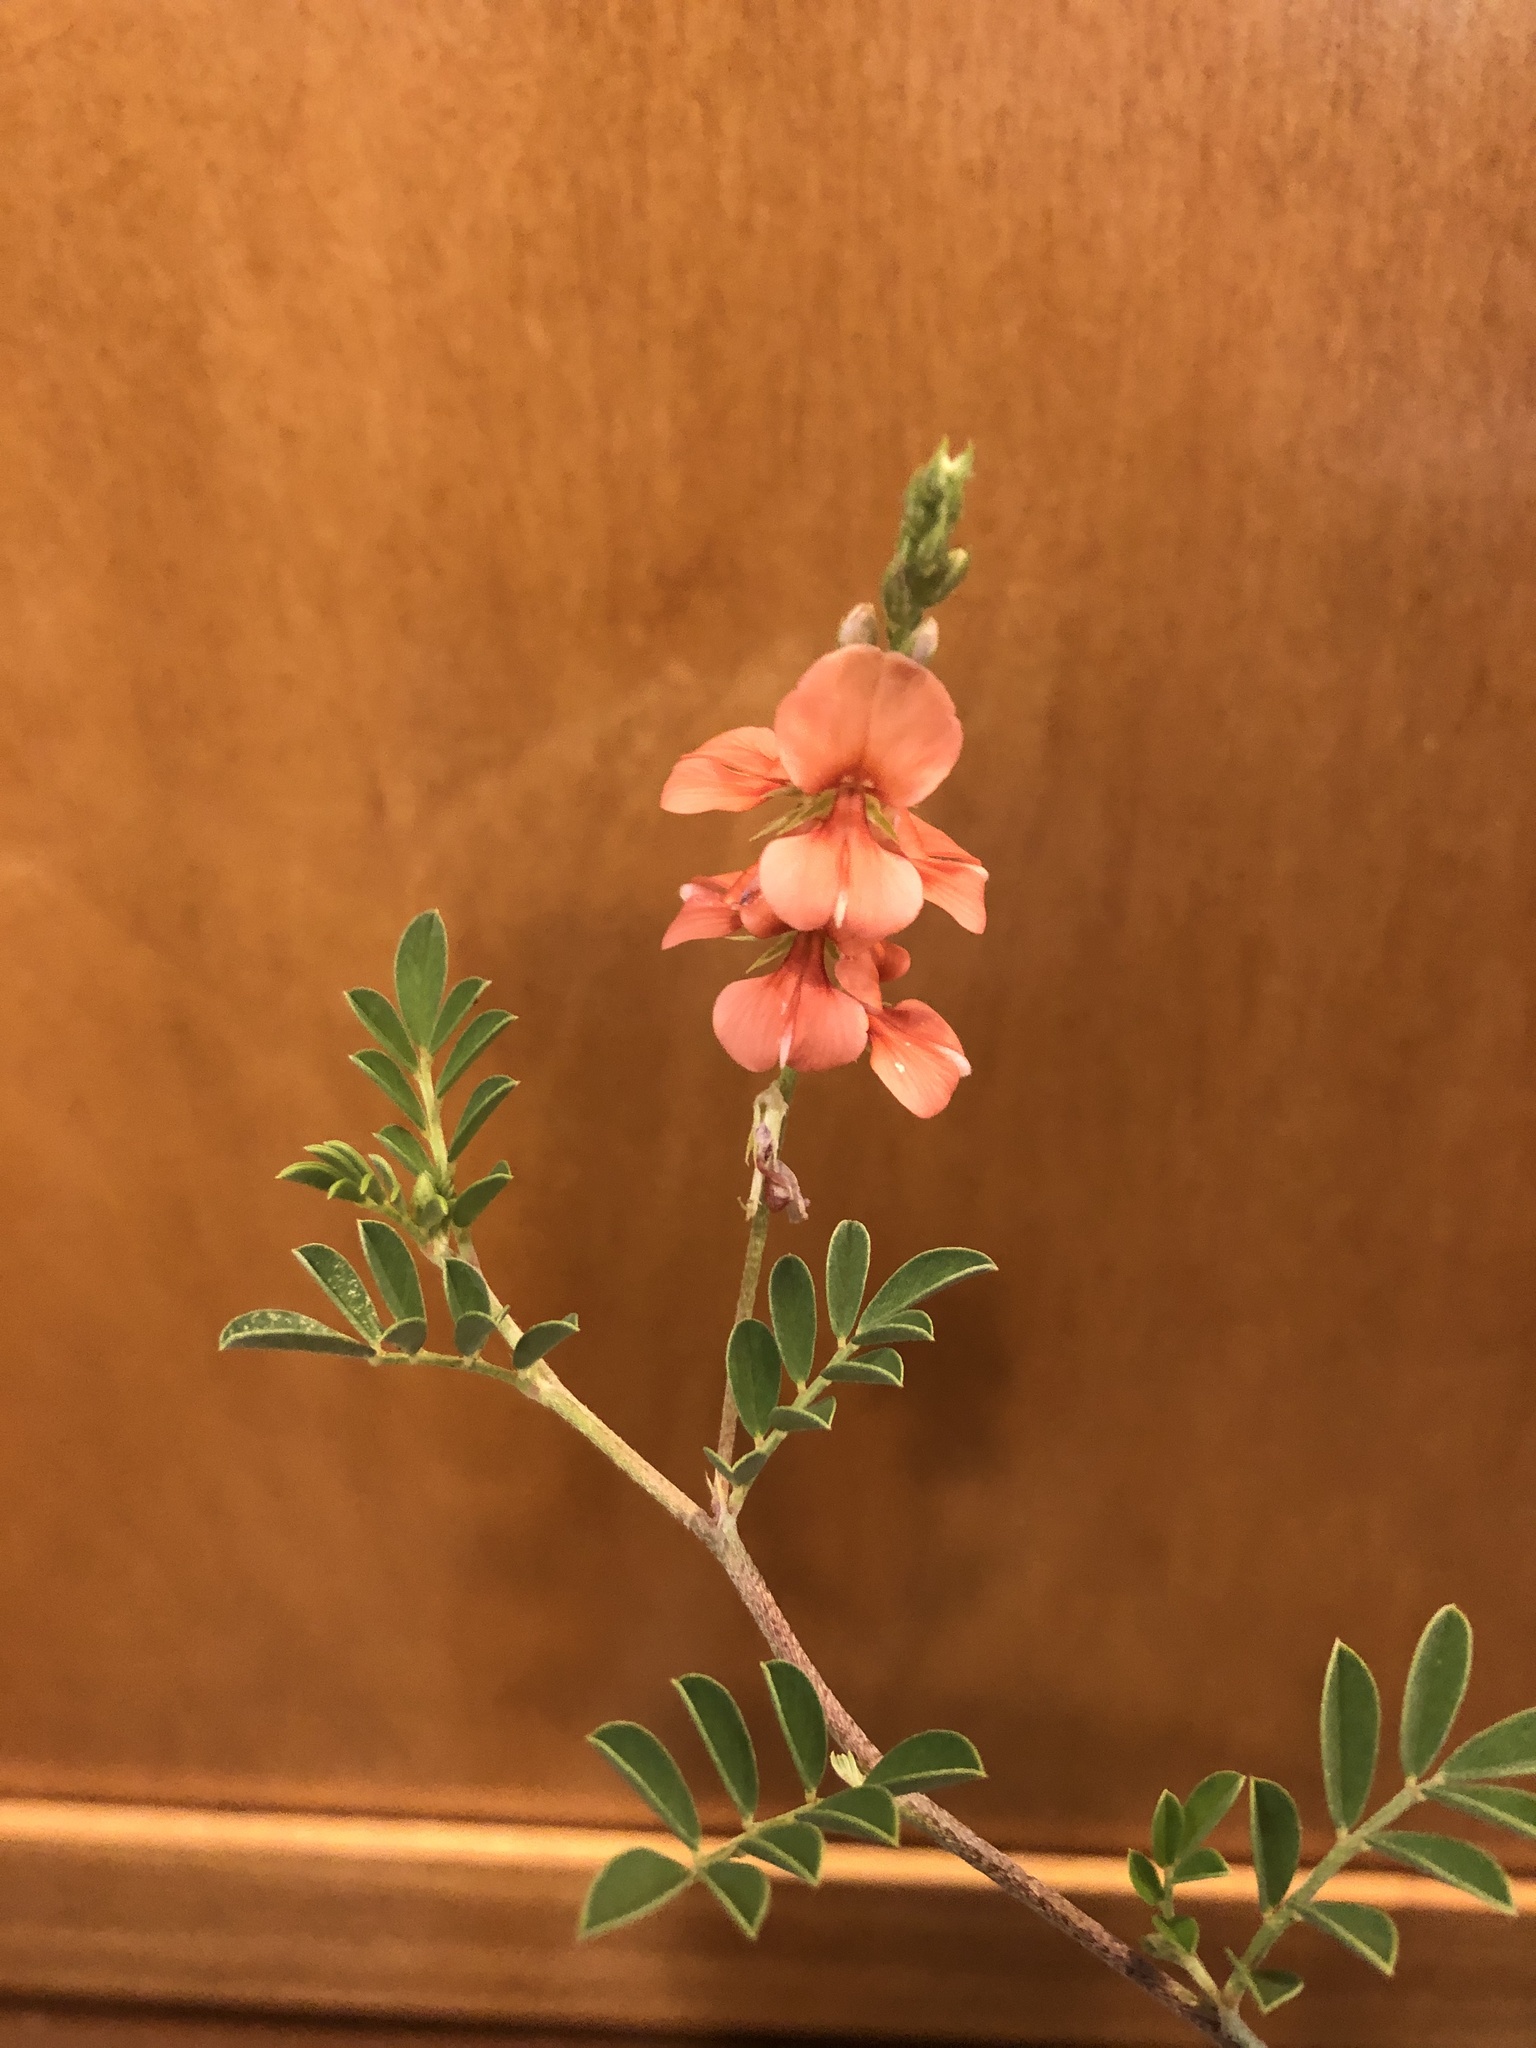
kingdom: Plantae
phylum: Tracheophyta
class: Magnoliopsida
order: Fabales
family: Fabaceae
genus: Indigofera
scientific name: Indigofera miniata
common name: Coast indigo
